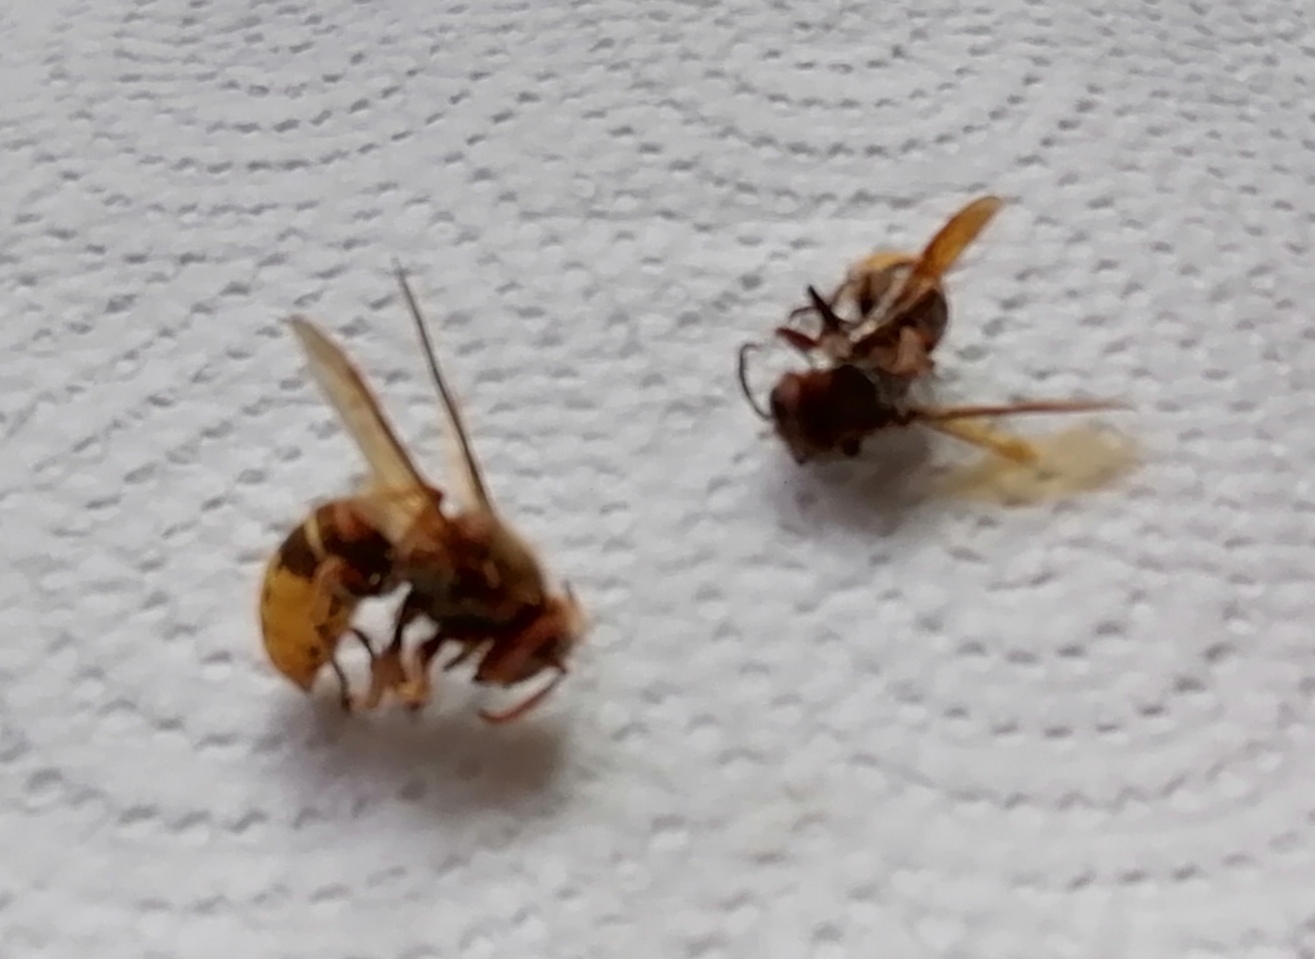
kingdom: Animalia
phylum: Arthropoda
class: Insecta
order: Hymenoptera
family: Vespidae
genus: Vespa
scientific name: Vespa crabro
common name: Hornet
